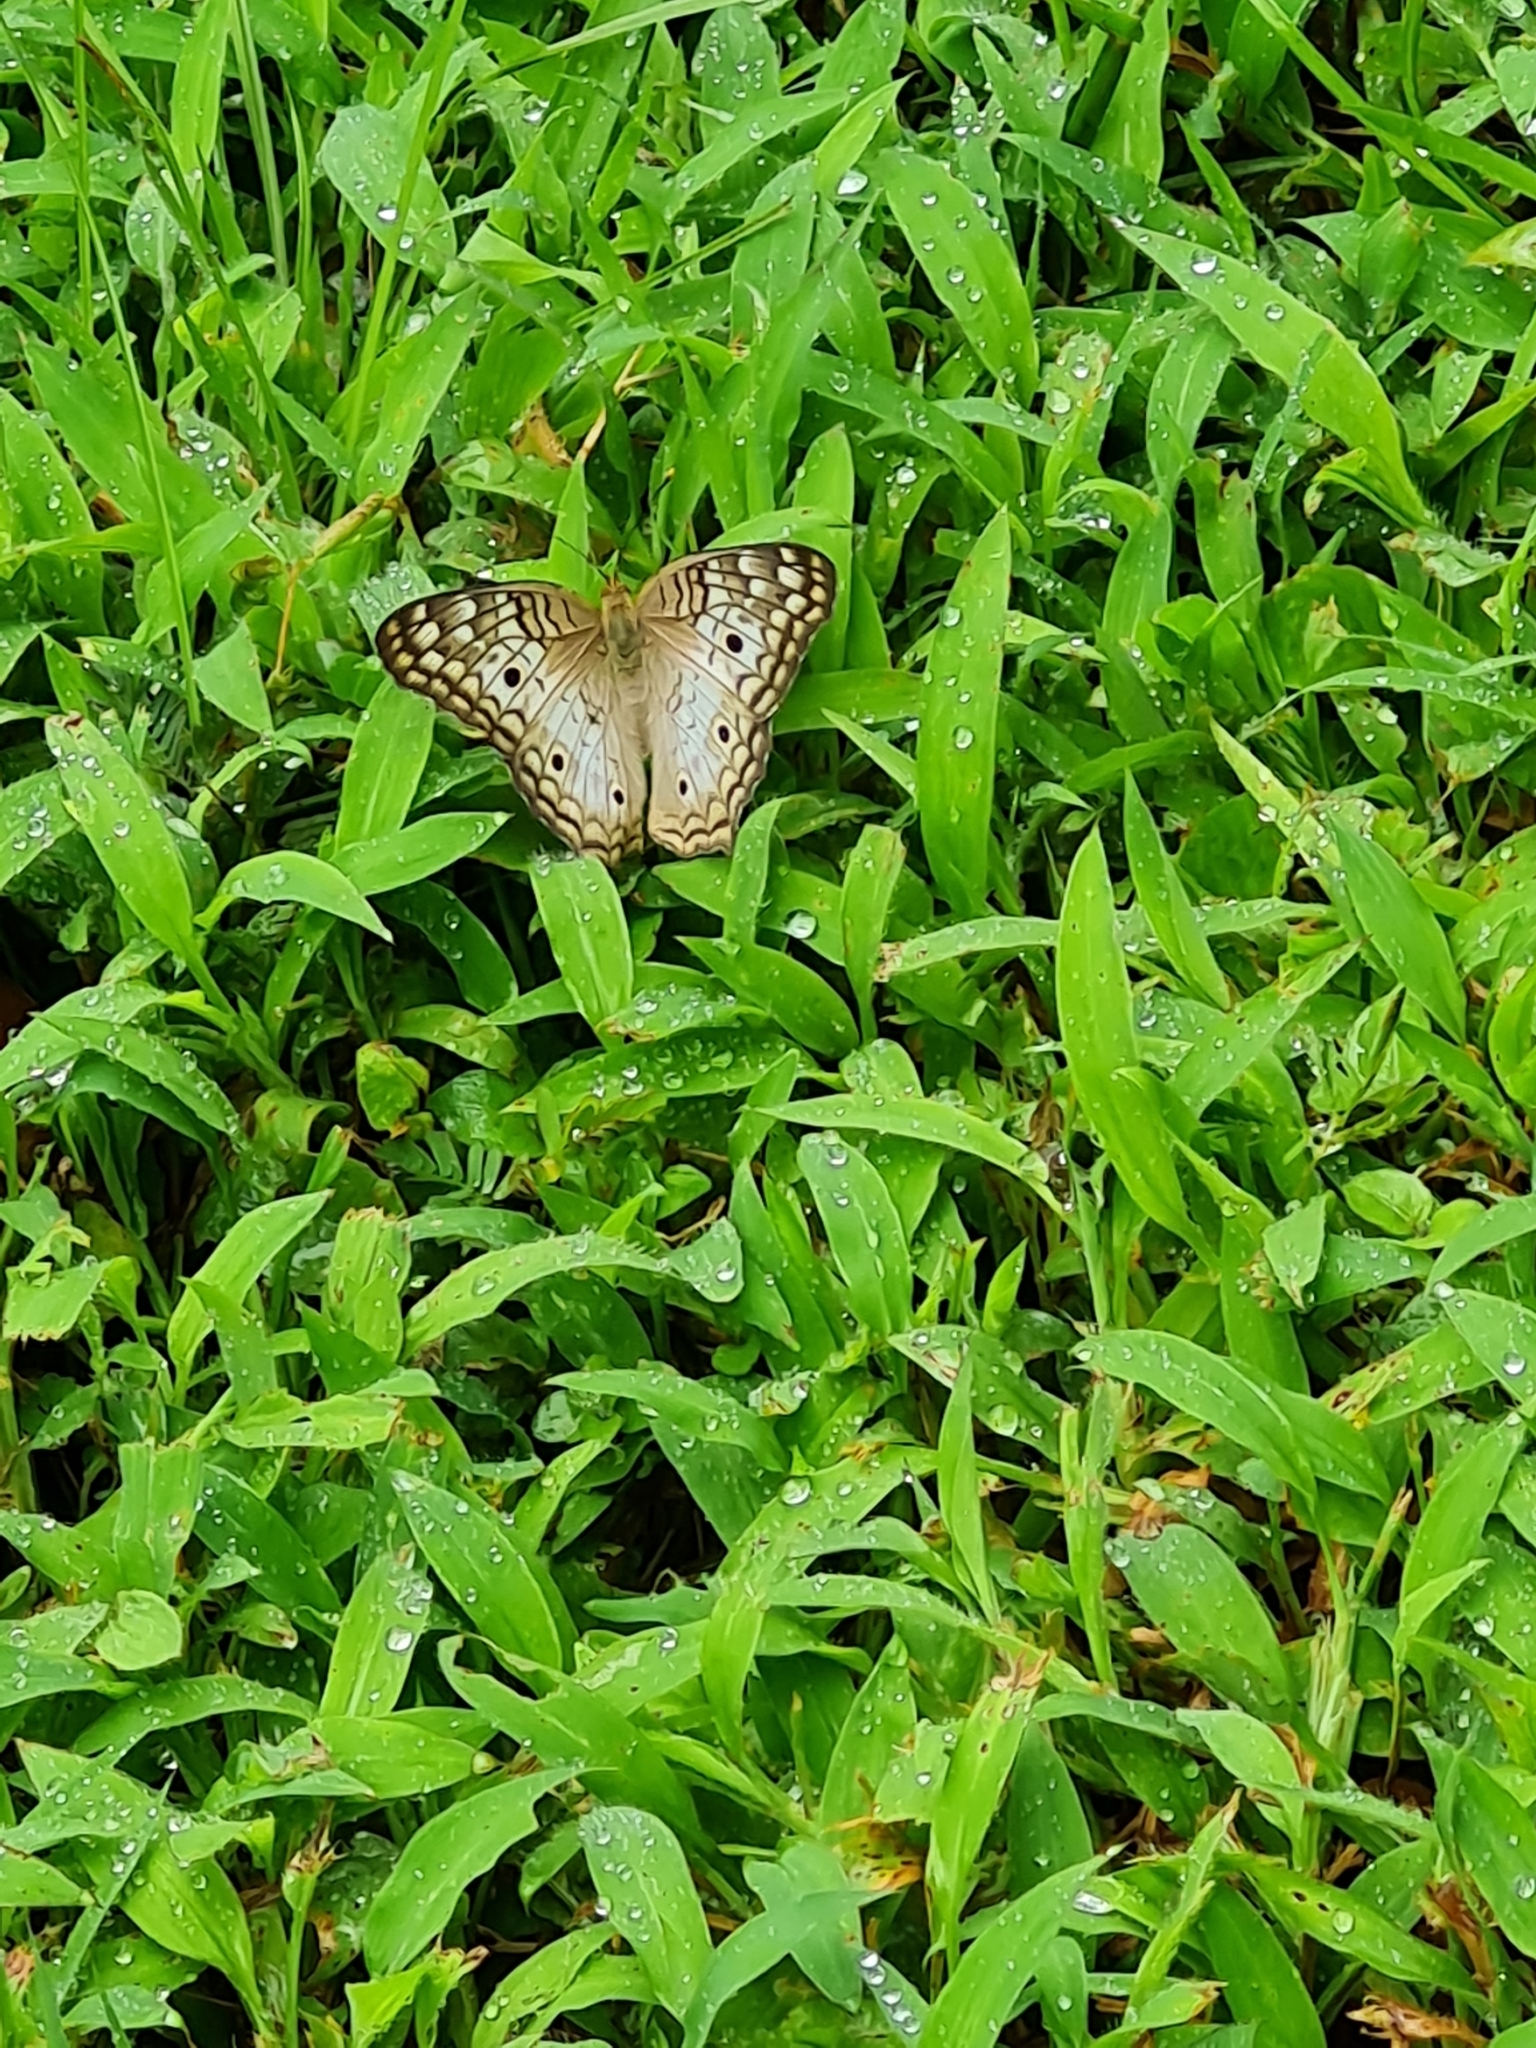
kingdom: Animalia
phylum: Arthropoda
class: Insecta
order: Lepidoptera
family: Nymphalidae
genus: Anartia
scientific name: Anartia jatrophae
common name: White peacock
